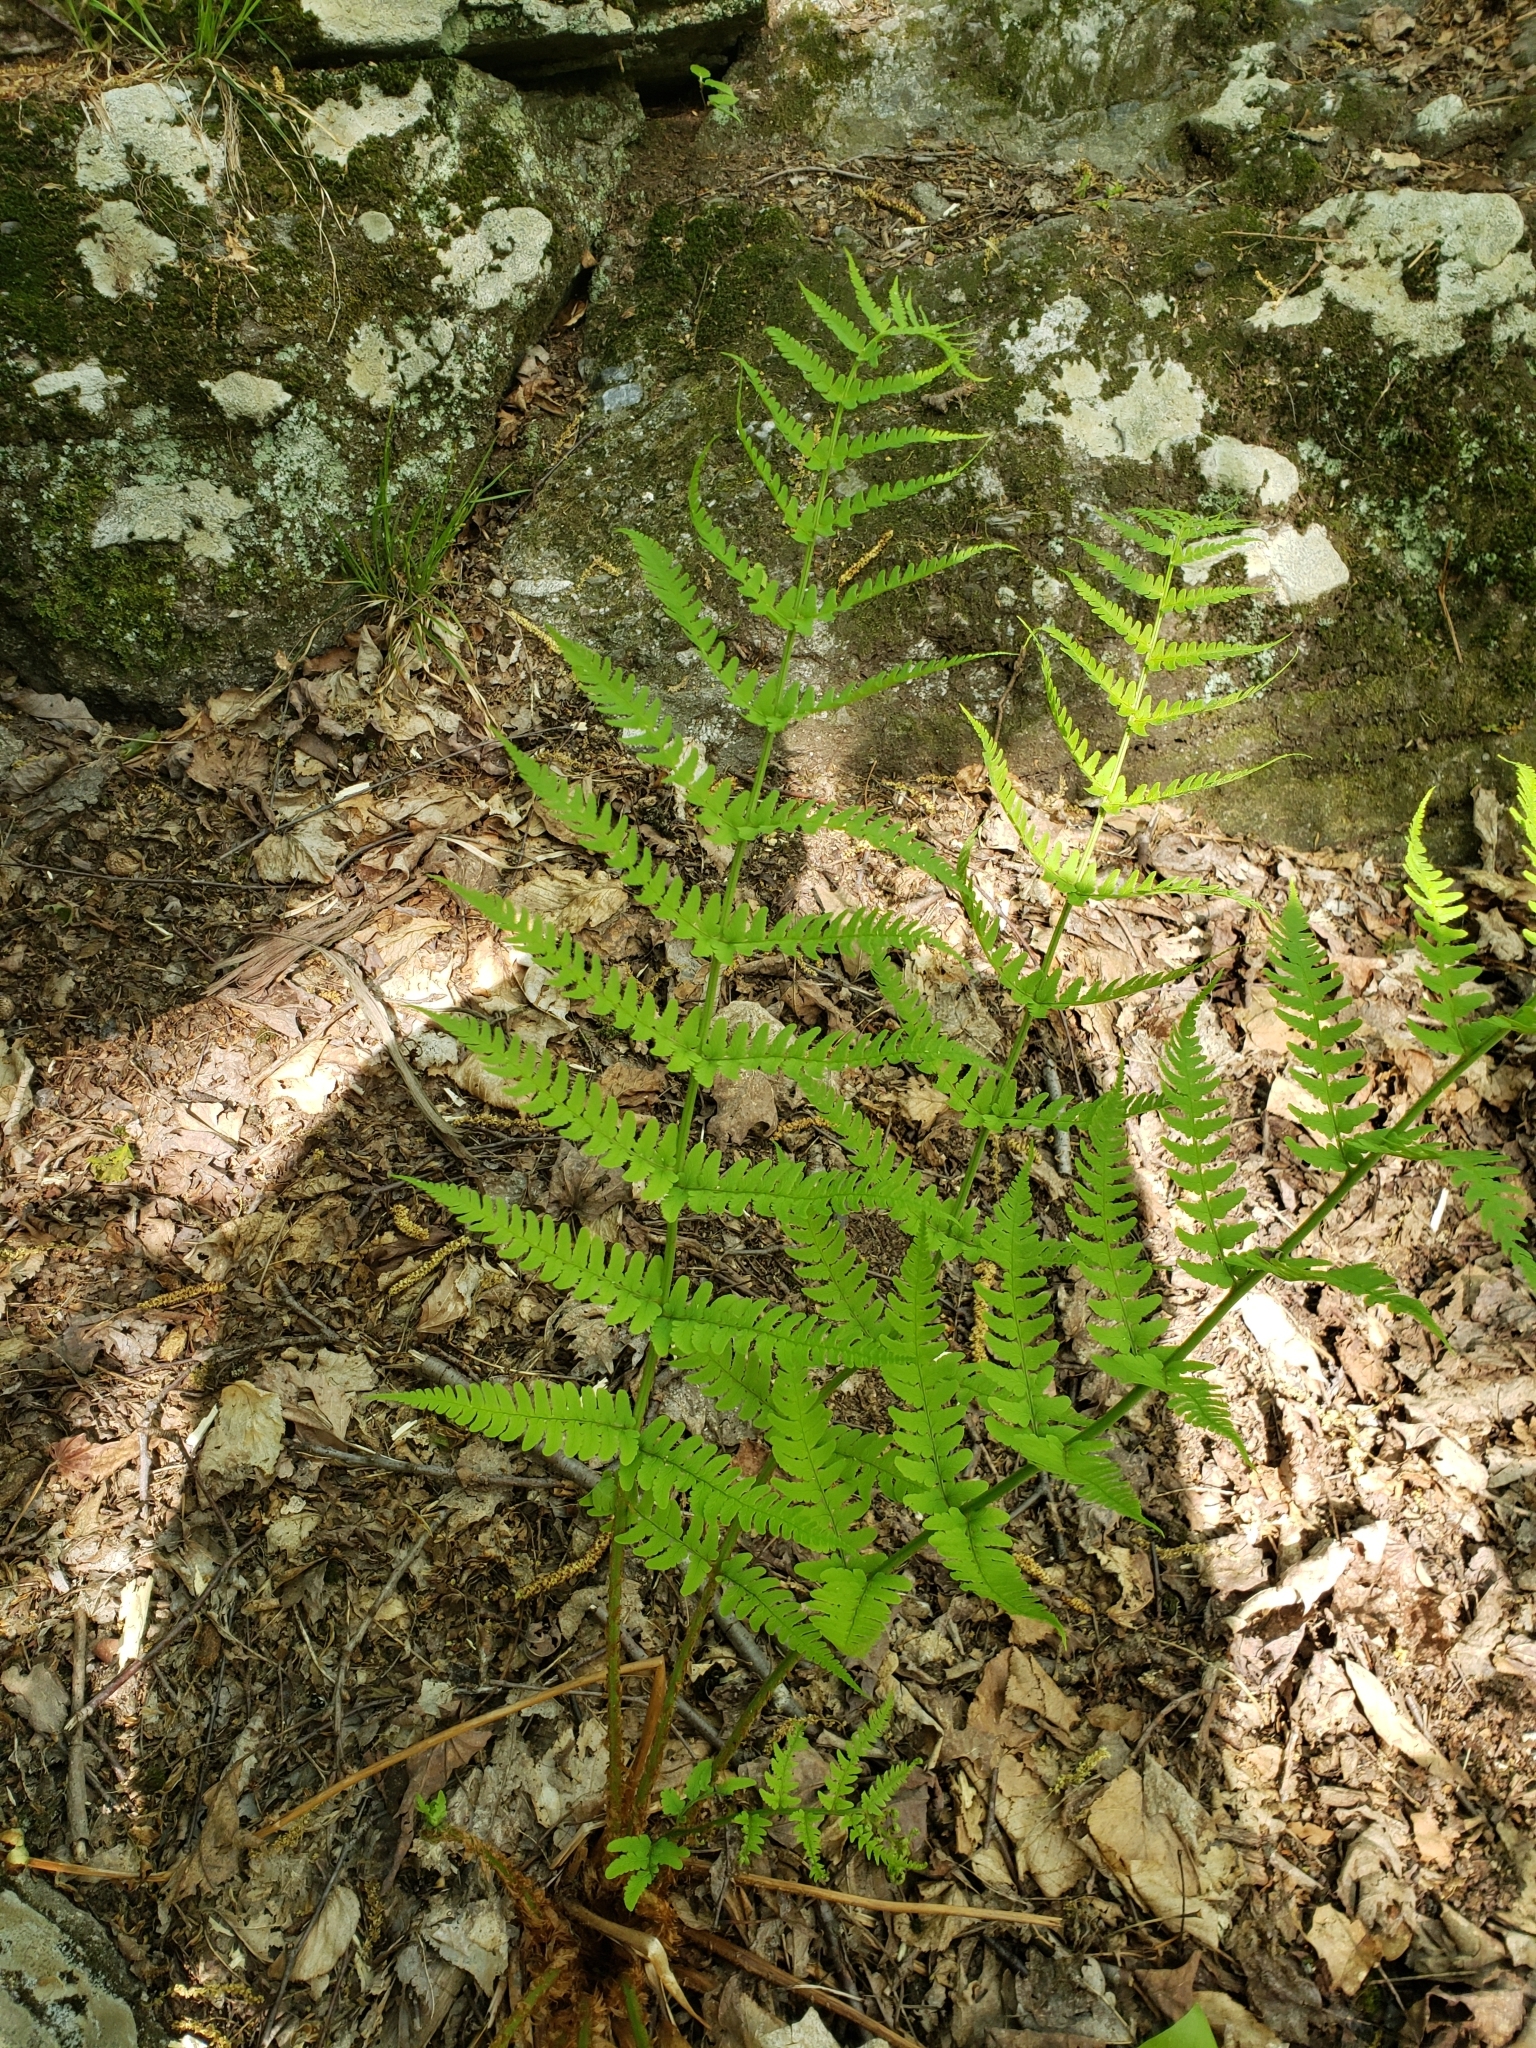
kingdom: Plantae
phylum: Tracheophyta
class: Polypodiopsida
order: Polypodiales
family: Dryopteridaceae
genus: Dryopteris
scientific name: Dryopteris marginalis
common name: Marginal wood fern
